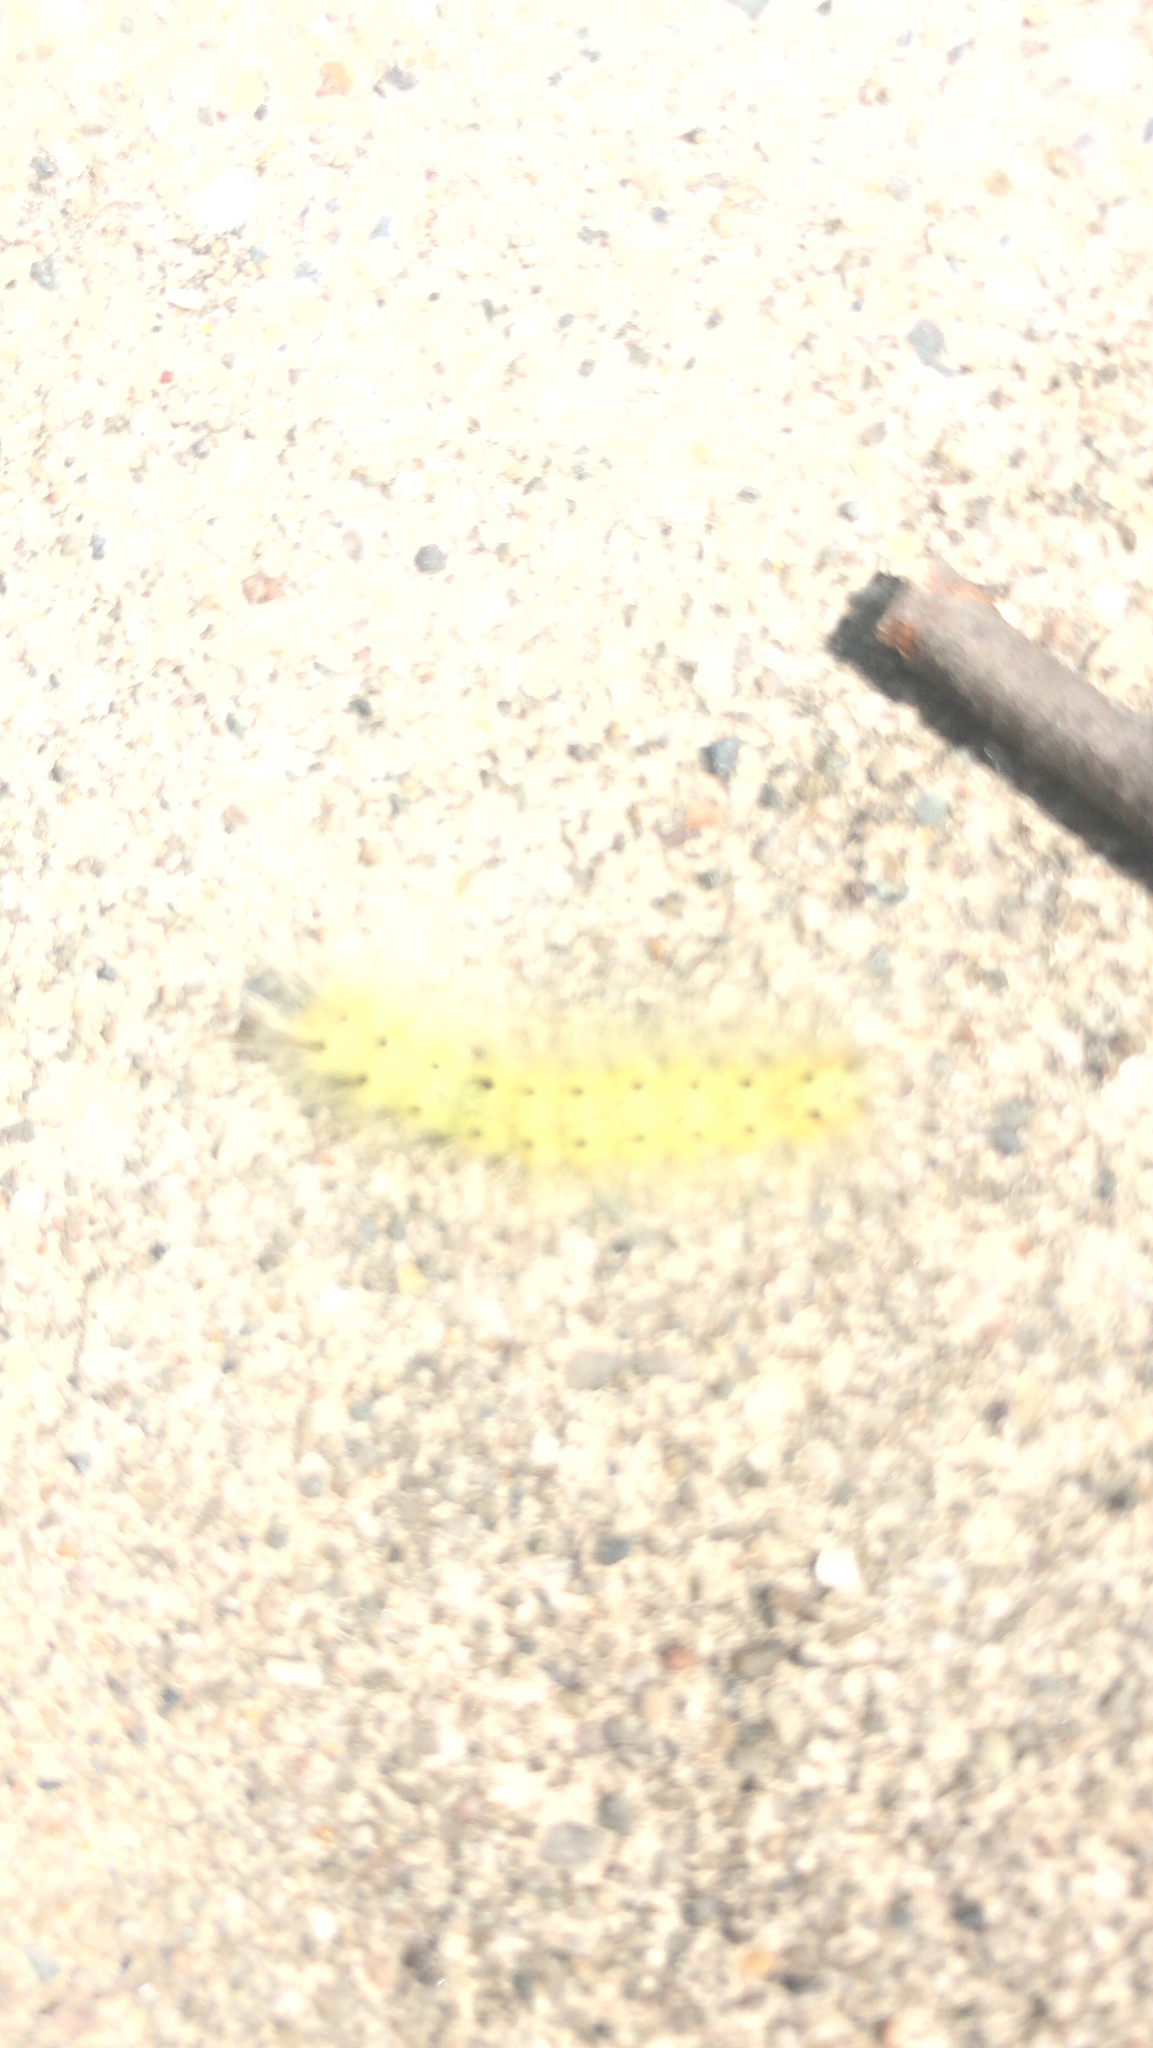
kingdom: Animalia
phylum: Arthropoda
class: Insecta
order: Lepidoptera
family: Erebidae
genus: Hyphantria
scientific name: Hyphantria cunea
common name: American white moth
